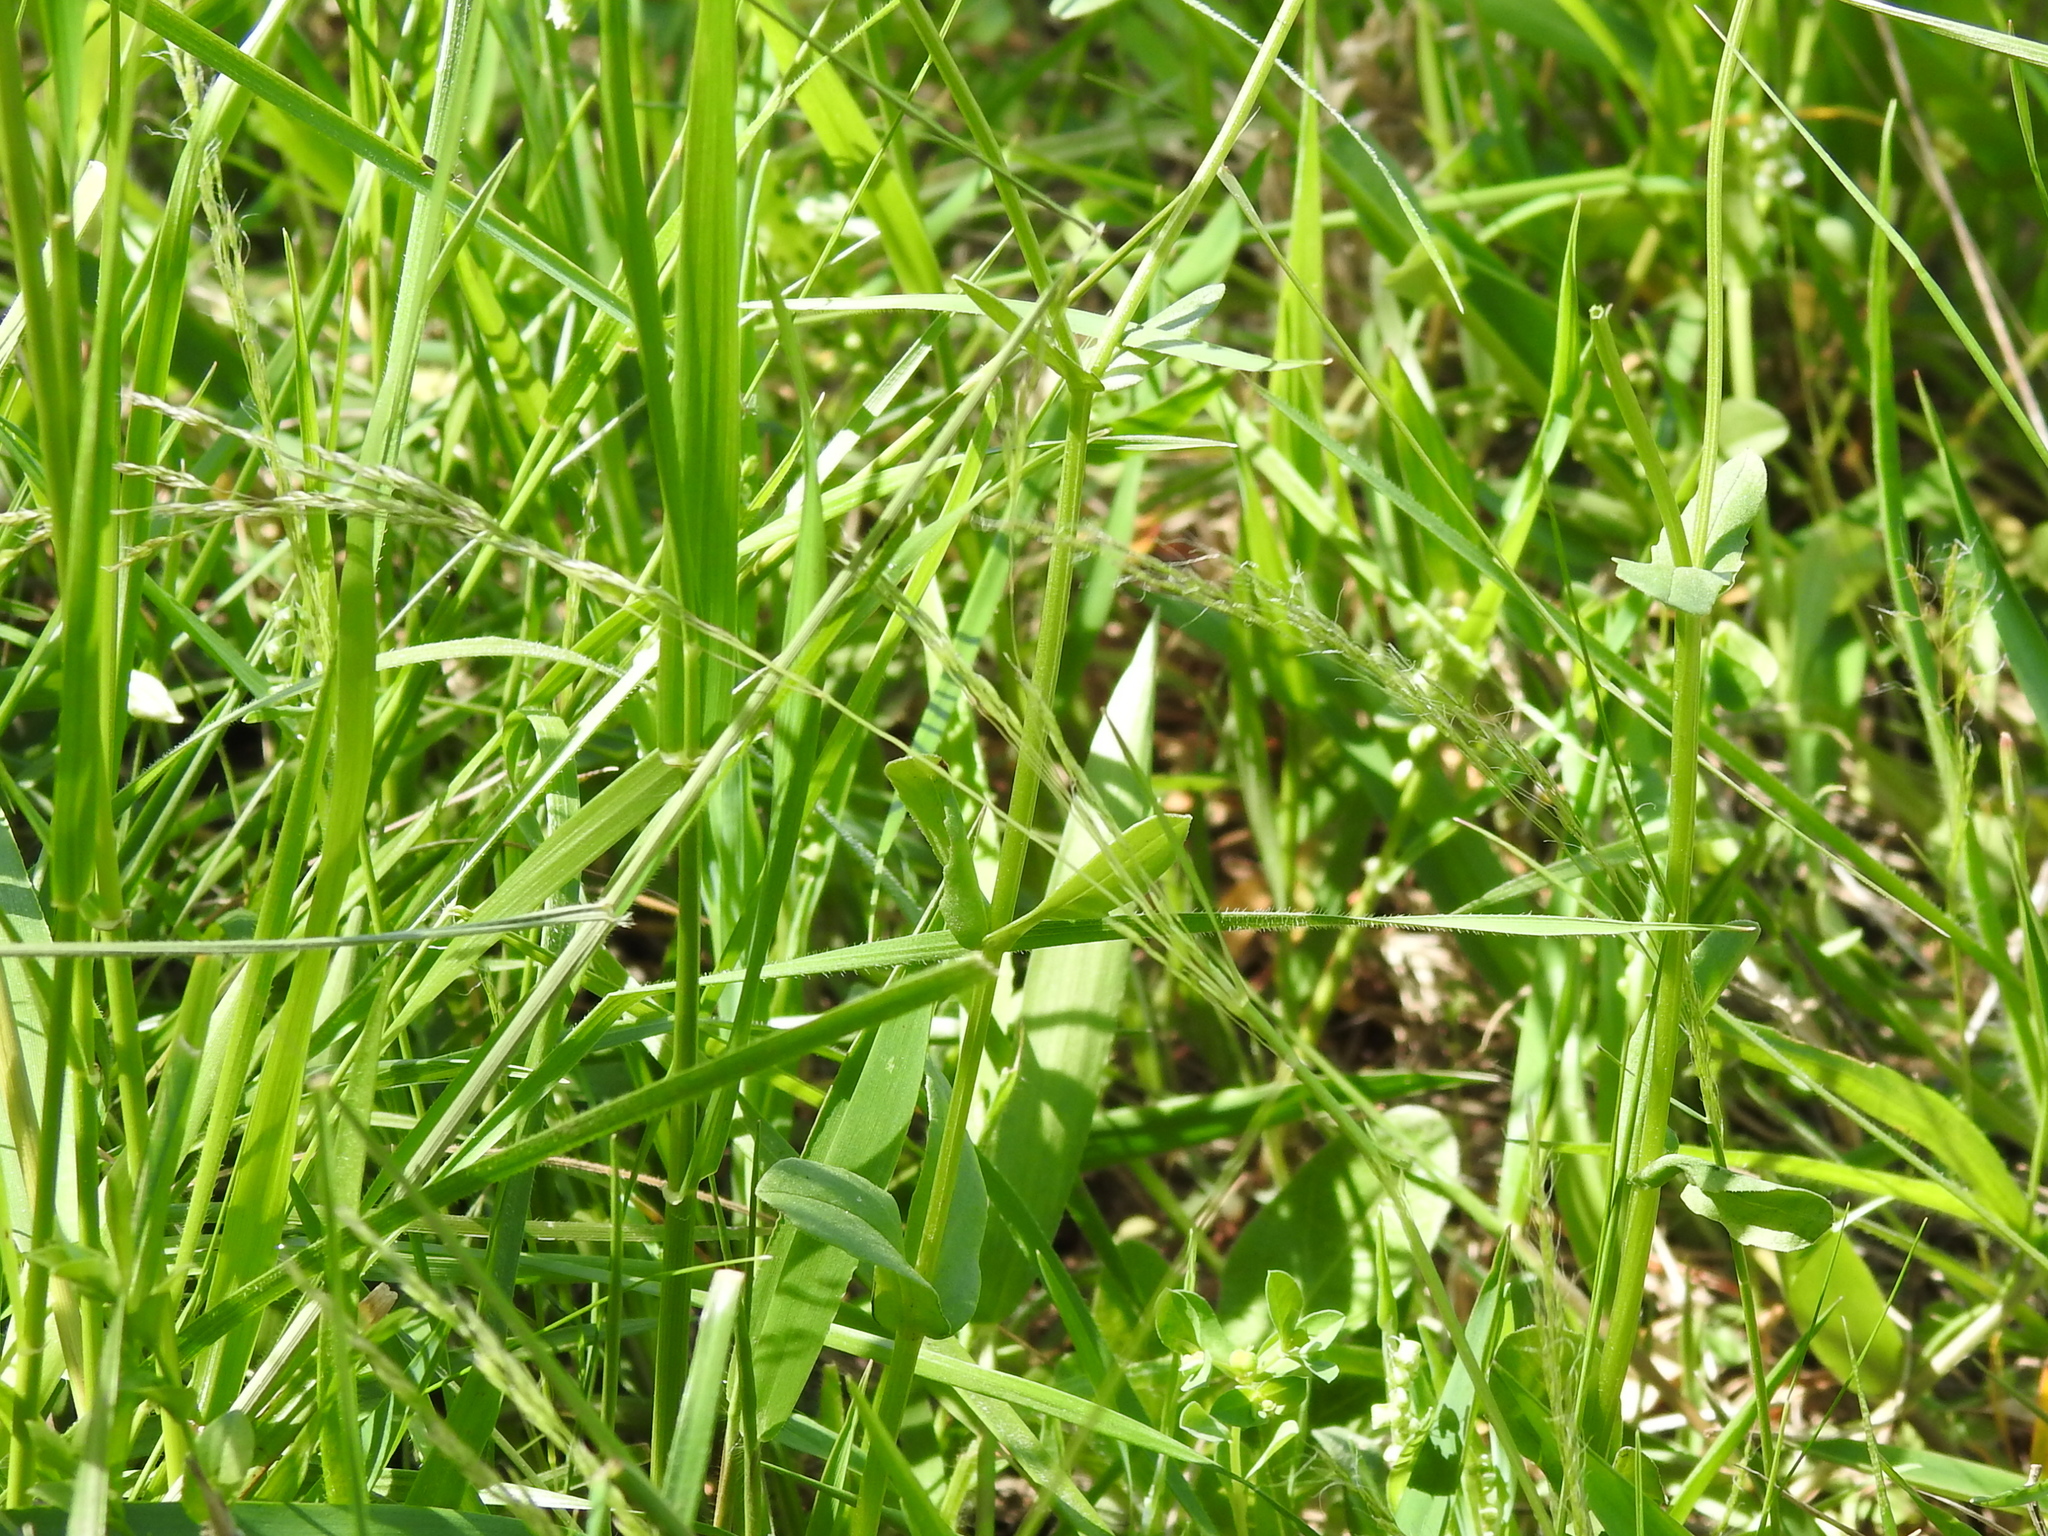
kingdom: Plantae
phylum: Tracheophyta
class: Liliopsida
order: Poales
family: Poaceae
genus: Agrostis
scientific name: Agrostis hyemalis
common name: Small bent
